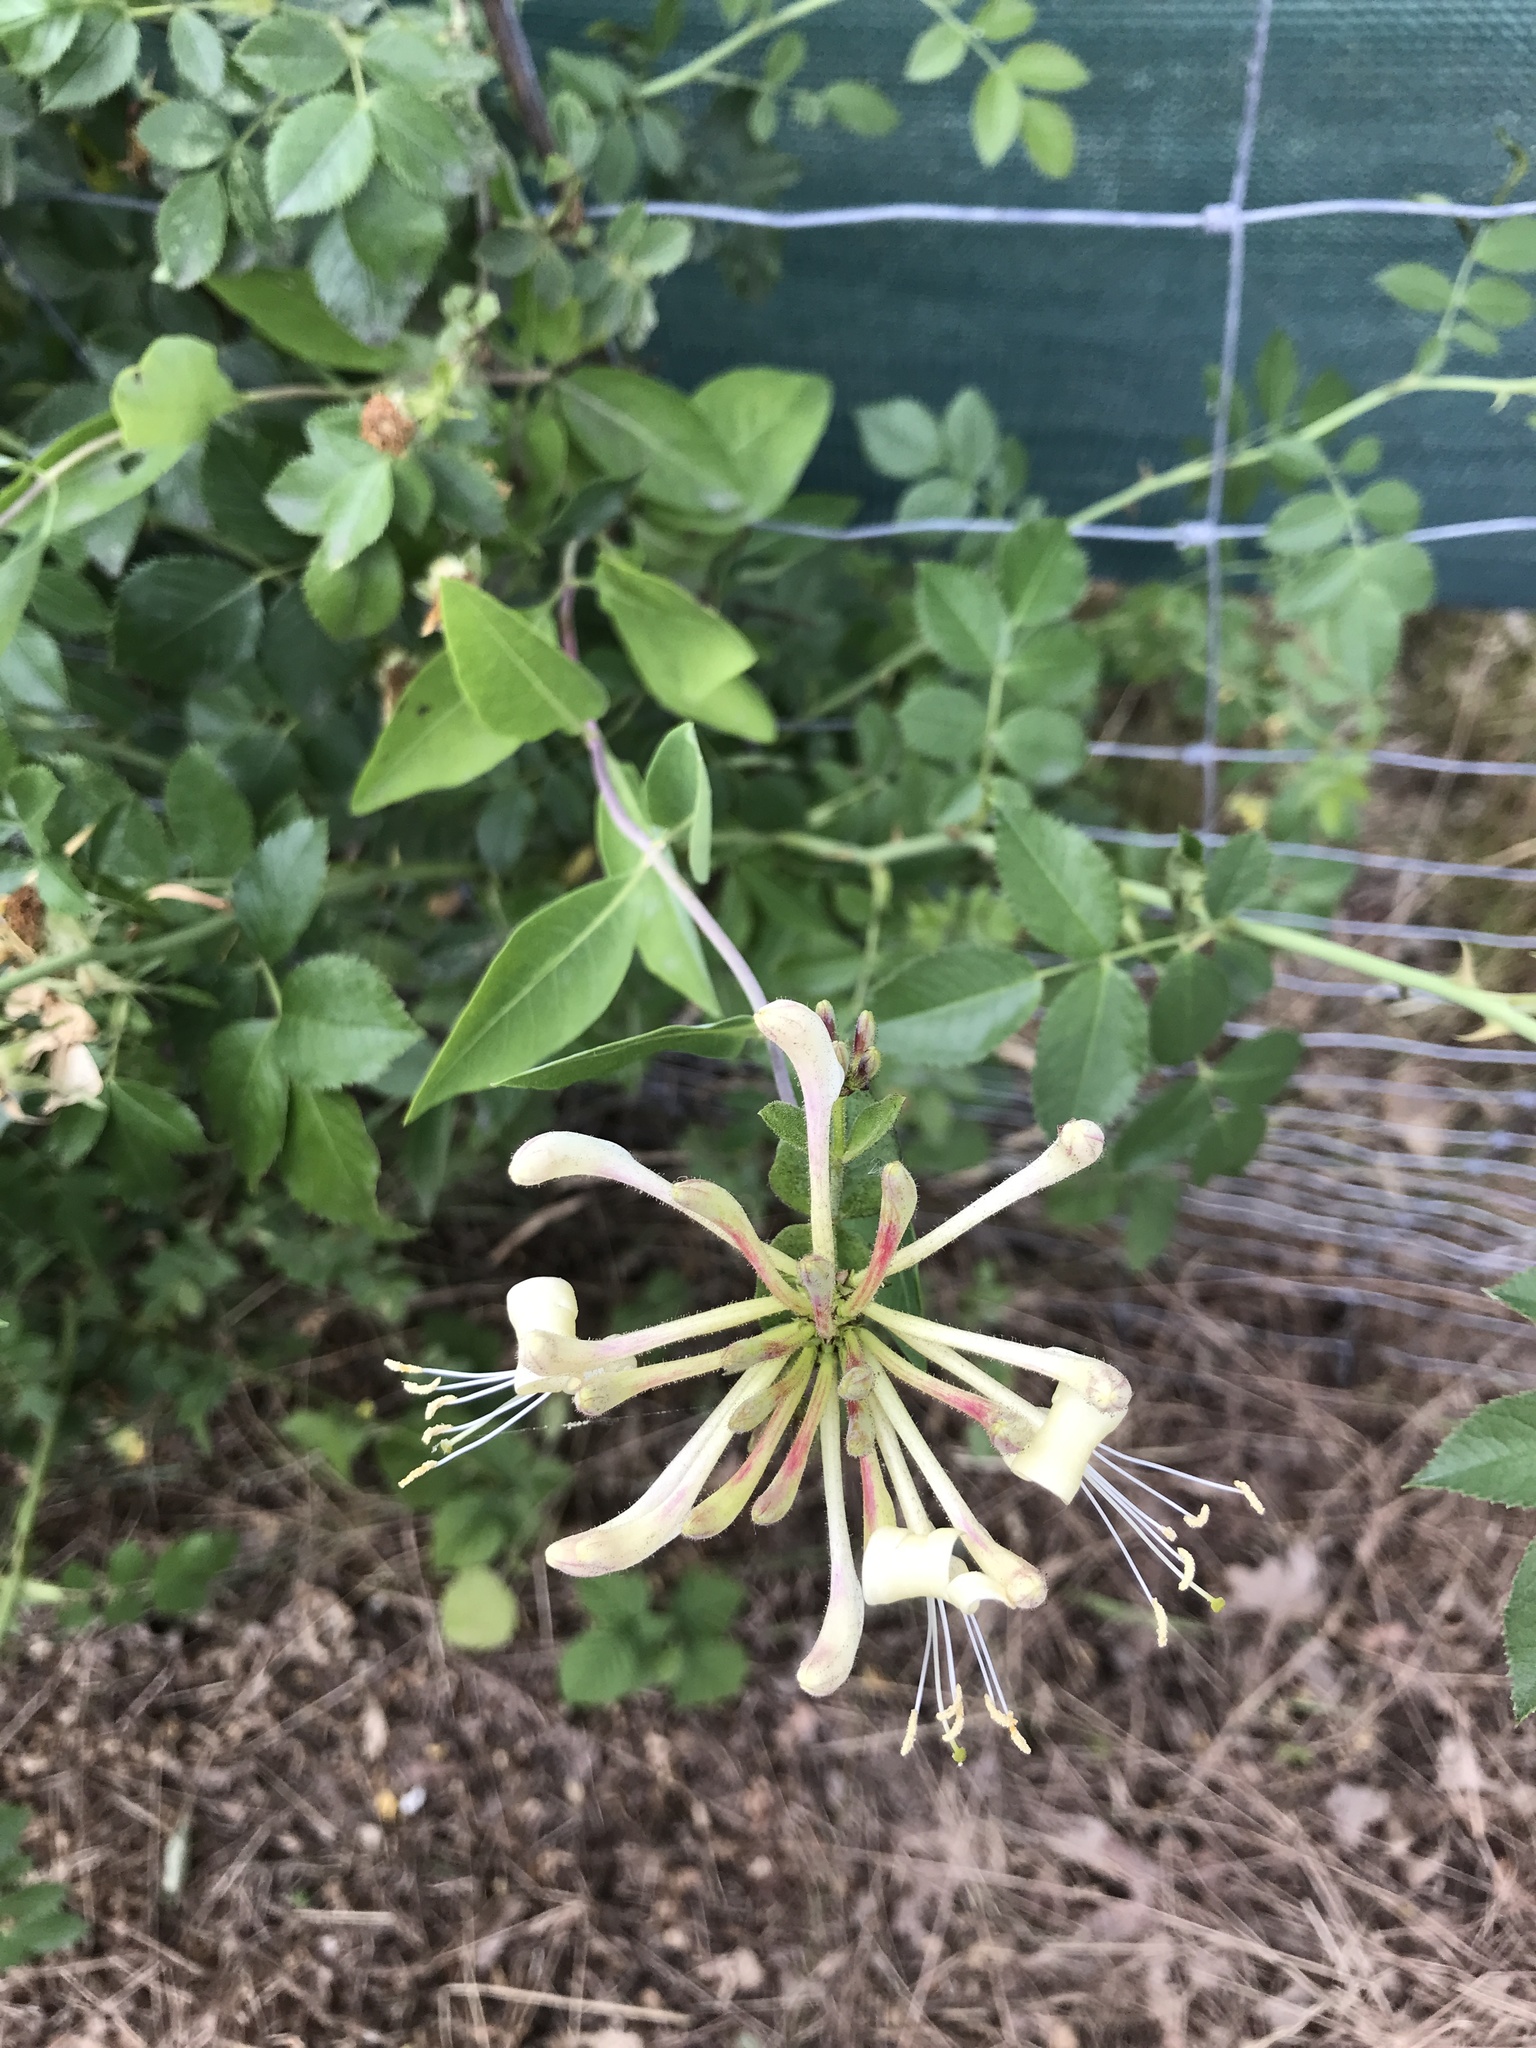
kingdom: Plantae
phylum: Tracheophyta
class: Magnoliopsida
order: Dipsacales
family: Caprifoliaceae
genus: Lonicera
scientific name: Lonicera periclymenum
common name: European honeysuckle
